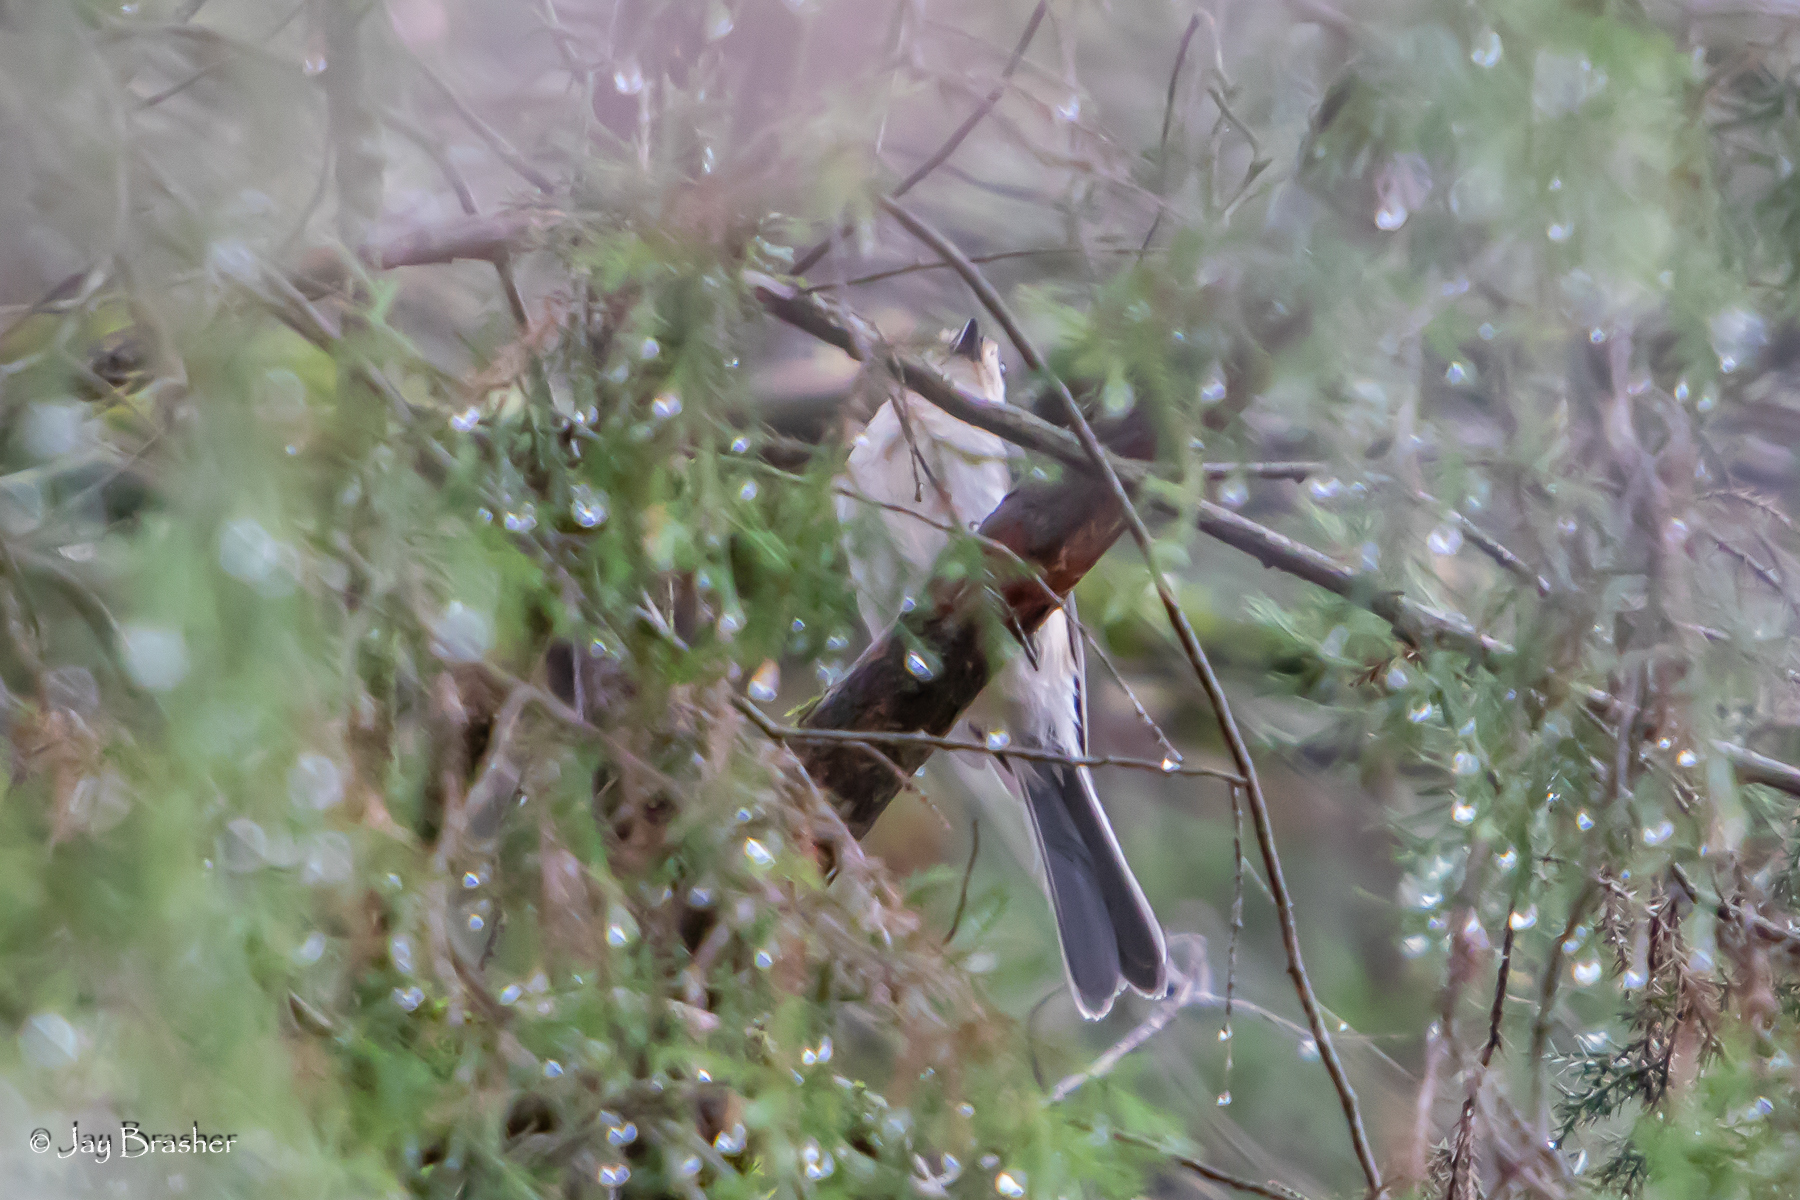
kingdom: Animalia
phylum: Chordata
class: Aves
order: Passeriformes
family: Paridae
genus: Baeolophus
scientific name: Baeolophus bicolor
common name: Tufted titmouse
